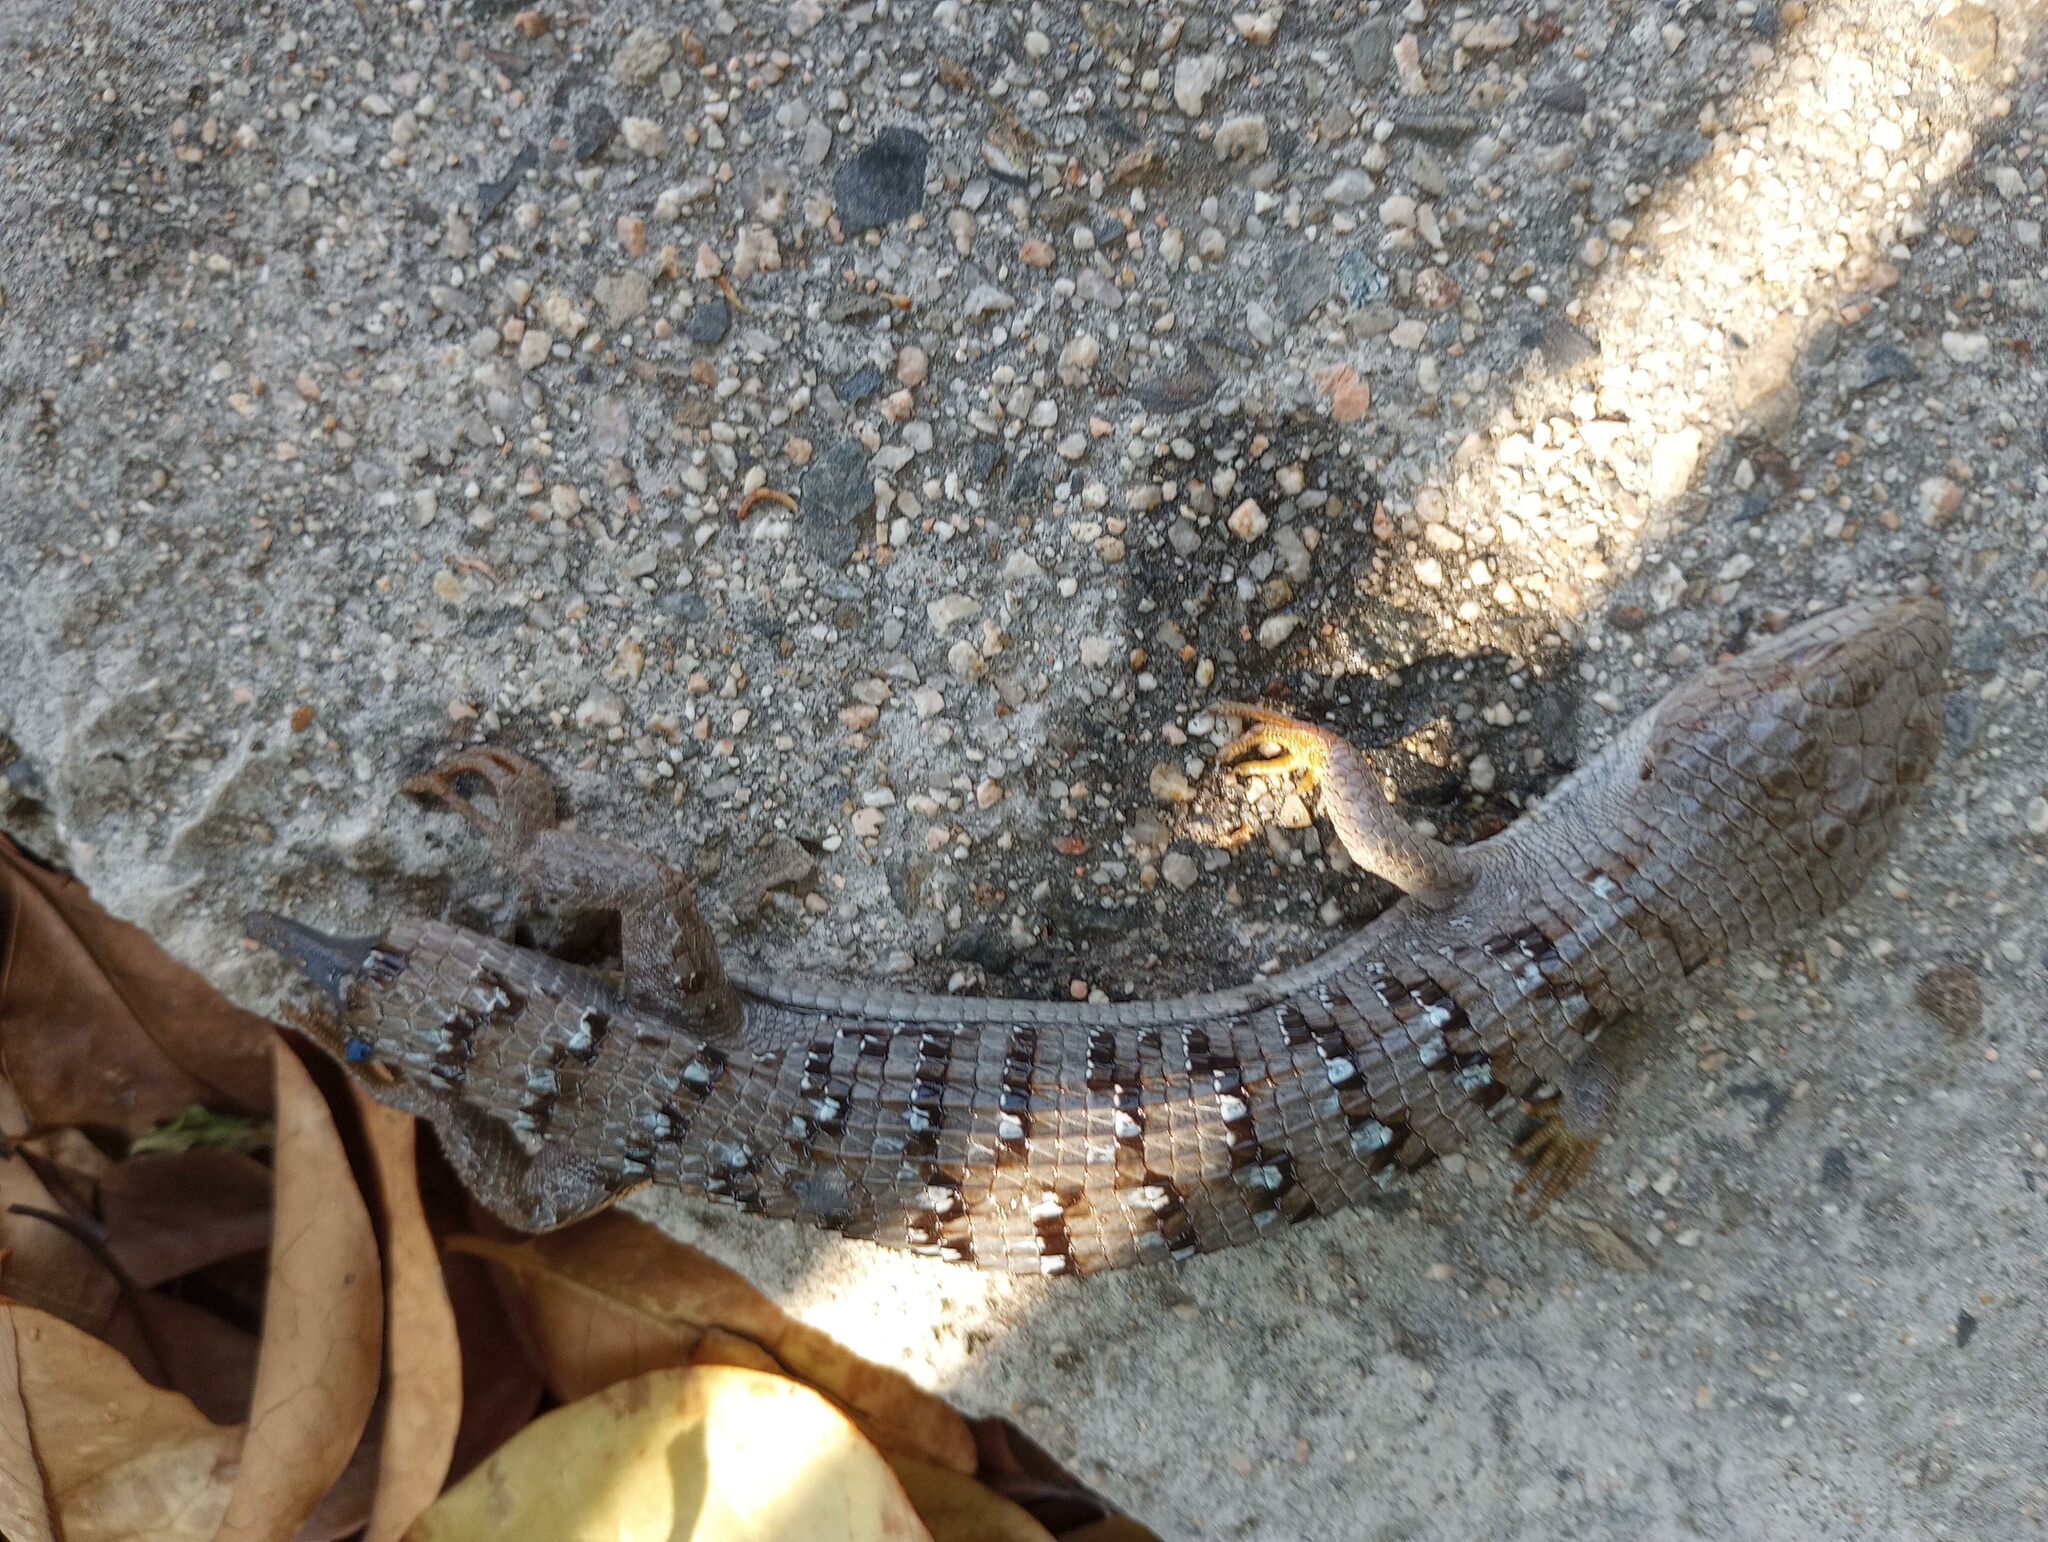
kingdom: Animalia
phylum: Chordata
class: Squamata
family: Anguidae
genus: Elgaria
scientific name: Elgaria multicarinata
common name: Southern alligator lizard
